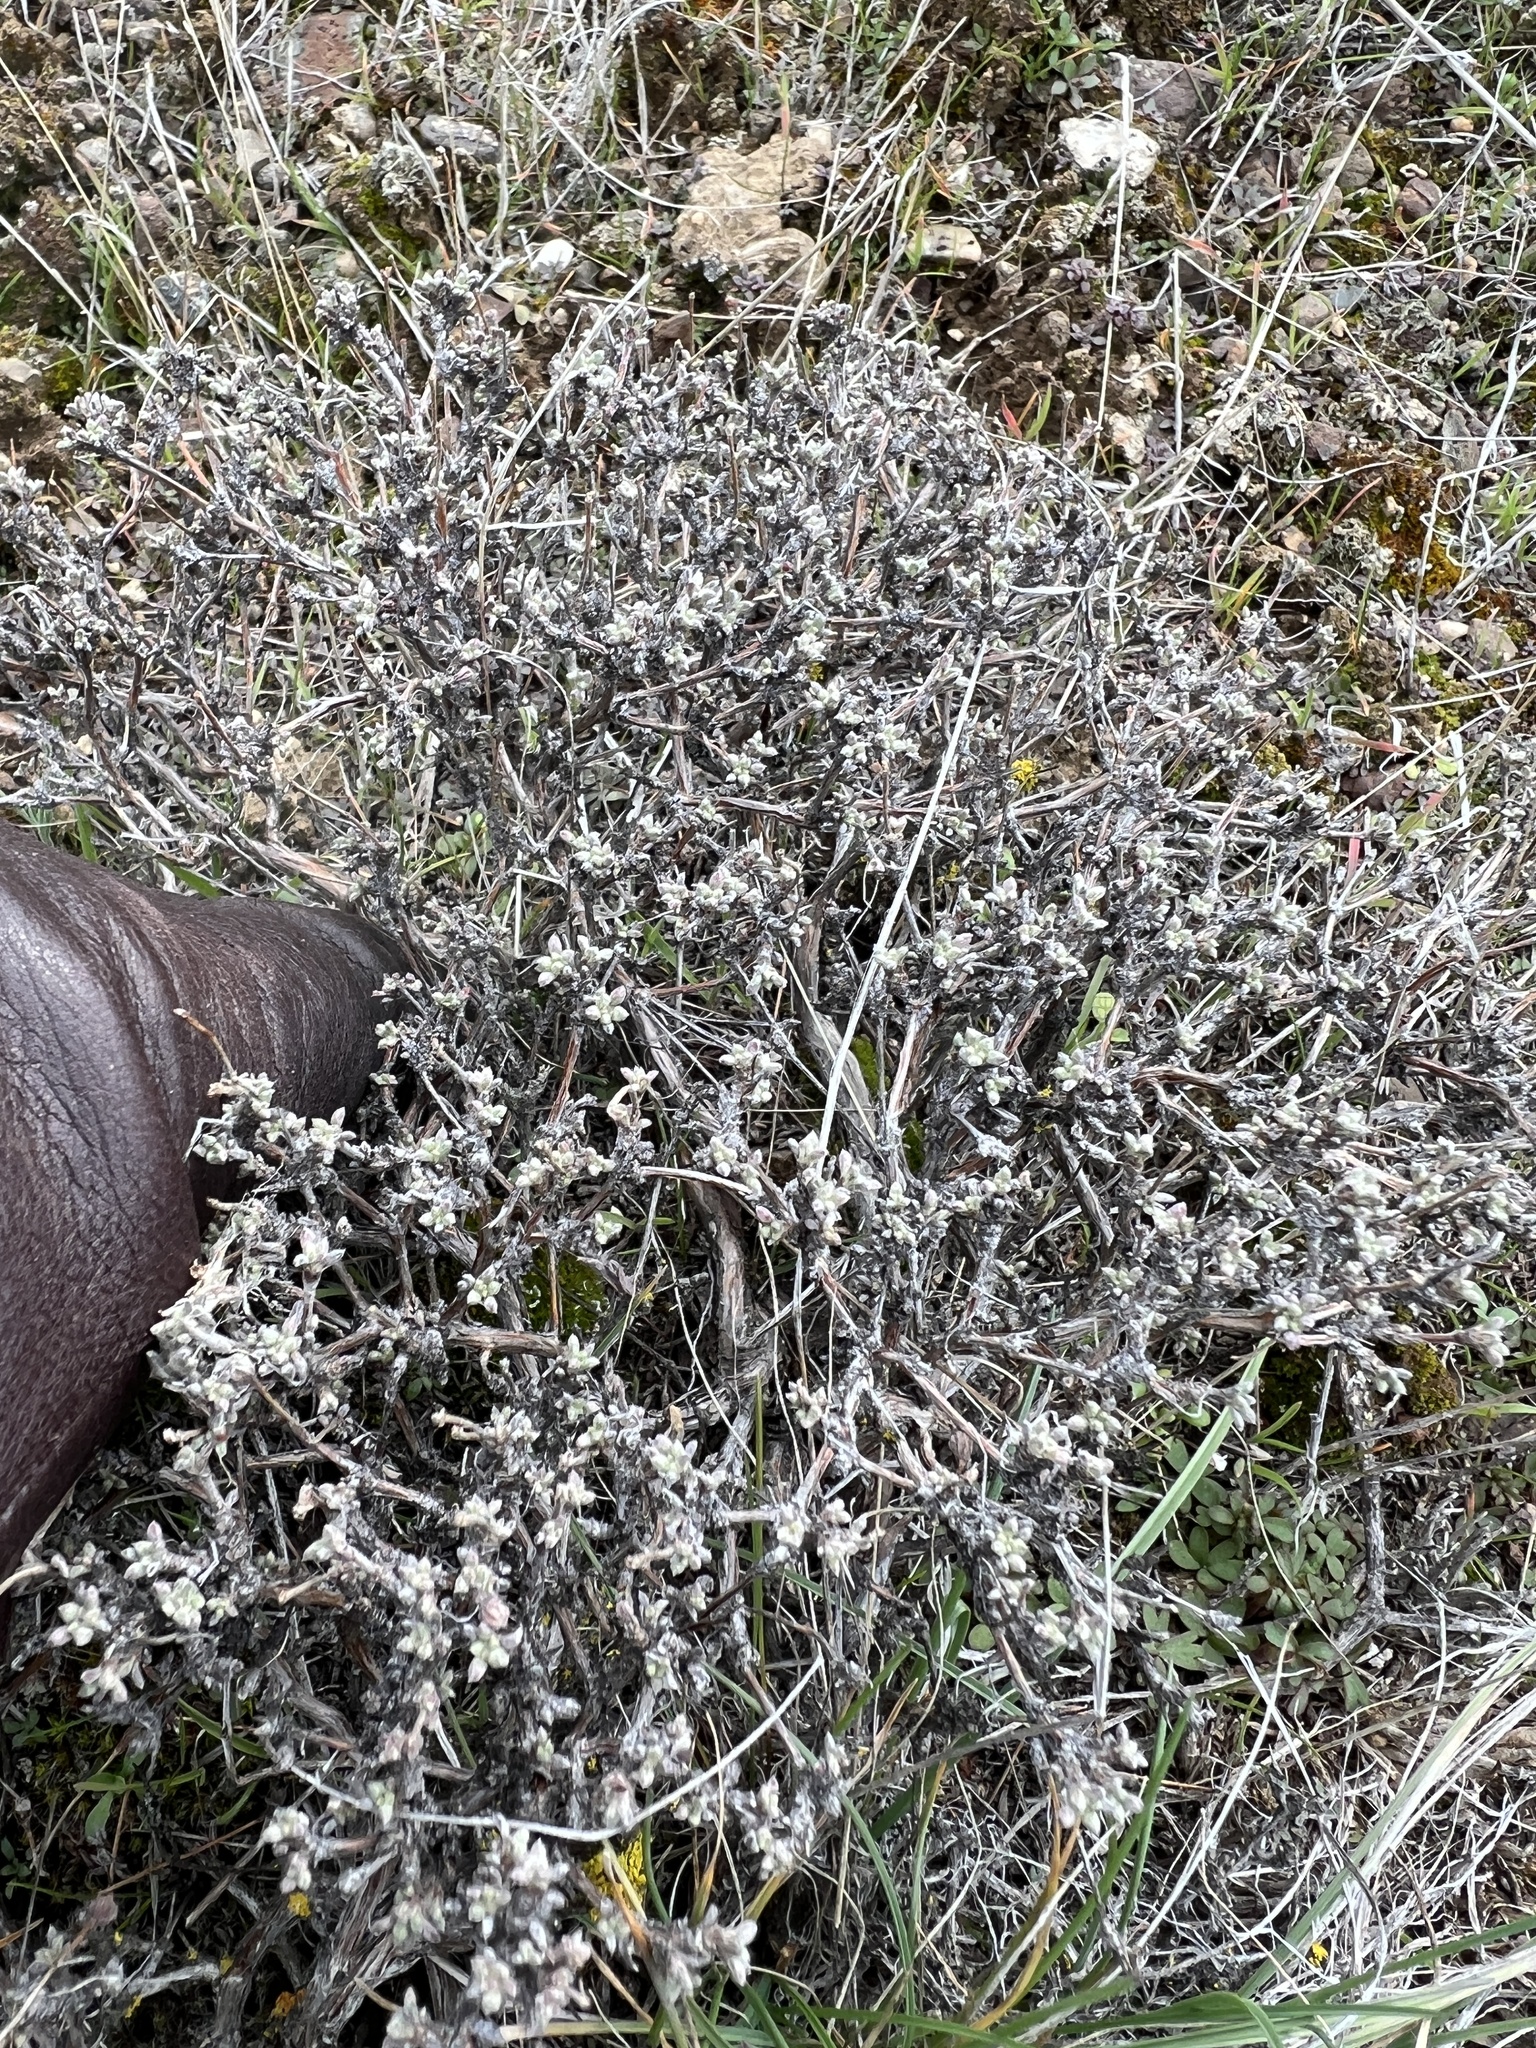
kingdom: Plantae
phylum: Tracheophyta
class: Magnoliopsida
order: Caryophyllales
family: Polygonaceae
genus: Eriogonum
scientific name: Eriogonum thymoides
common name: Thyme-leaf wild buckwheat
